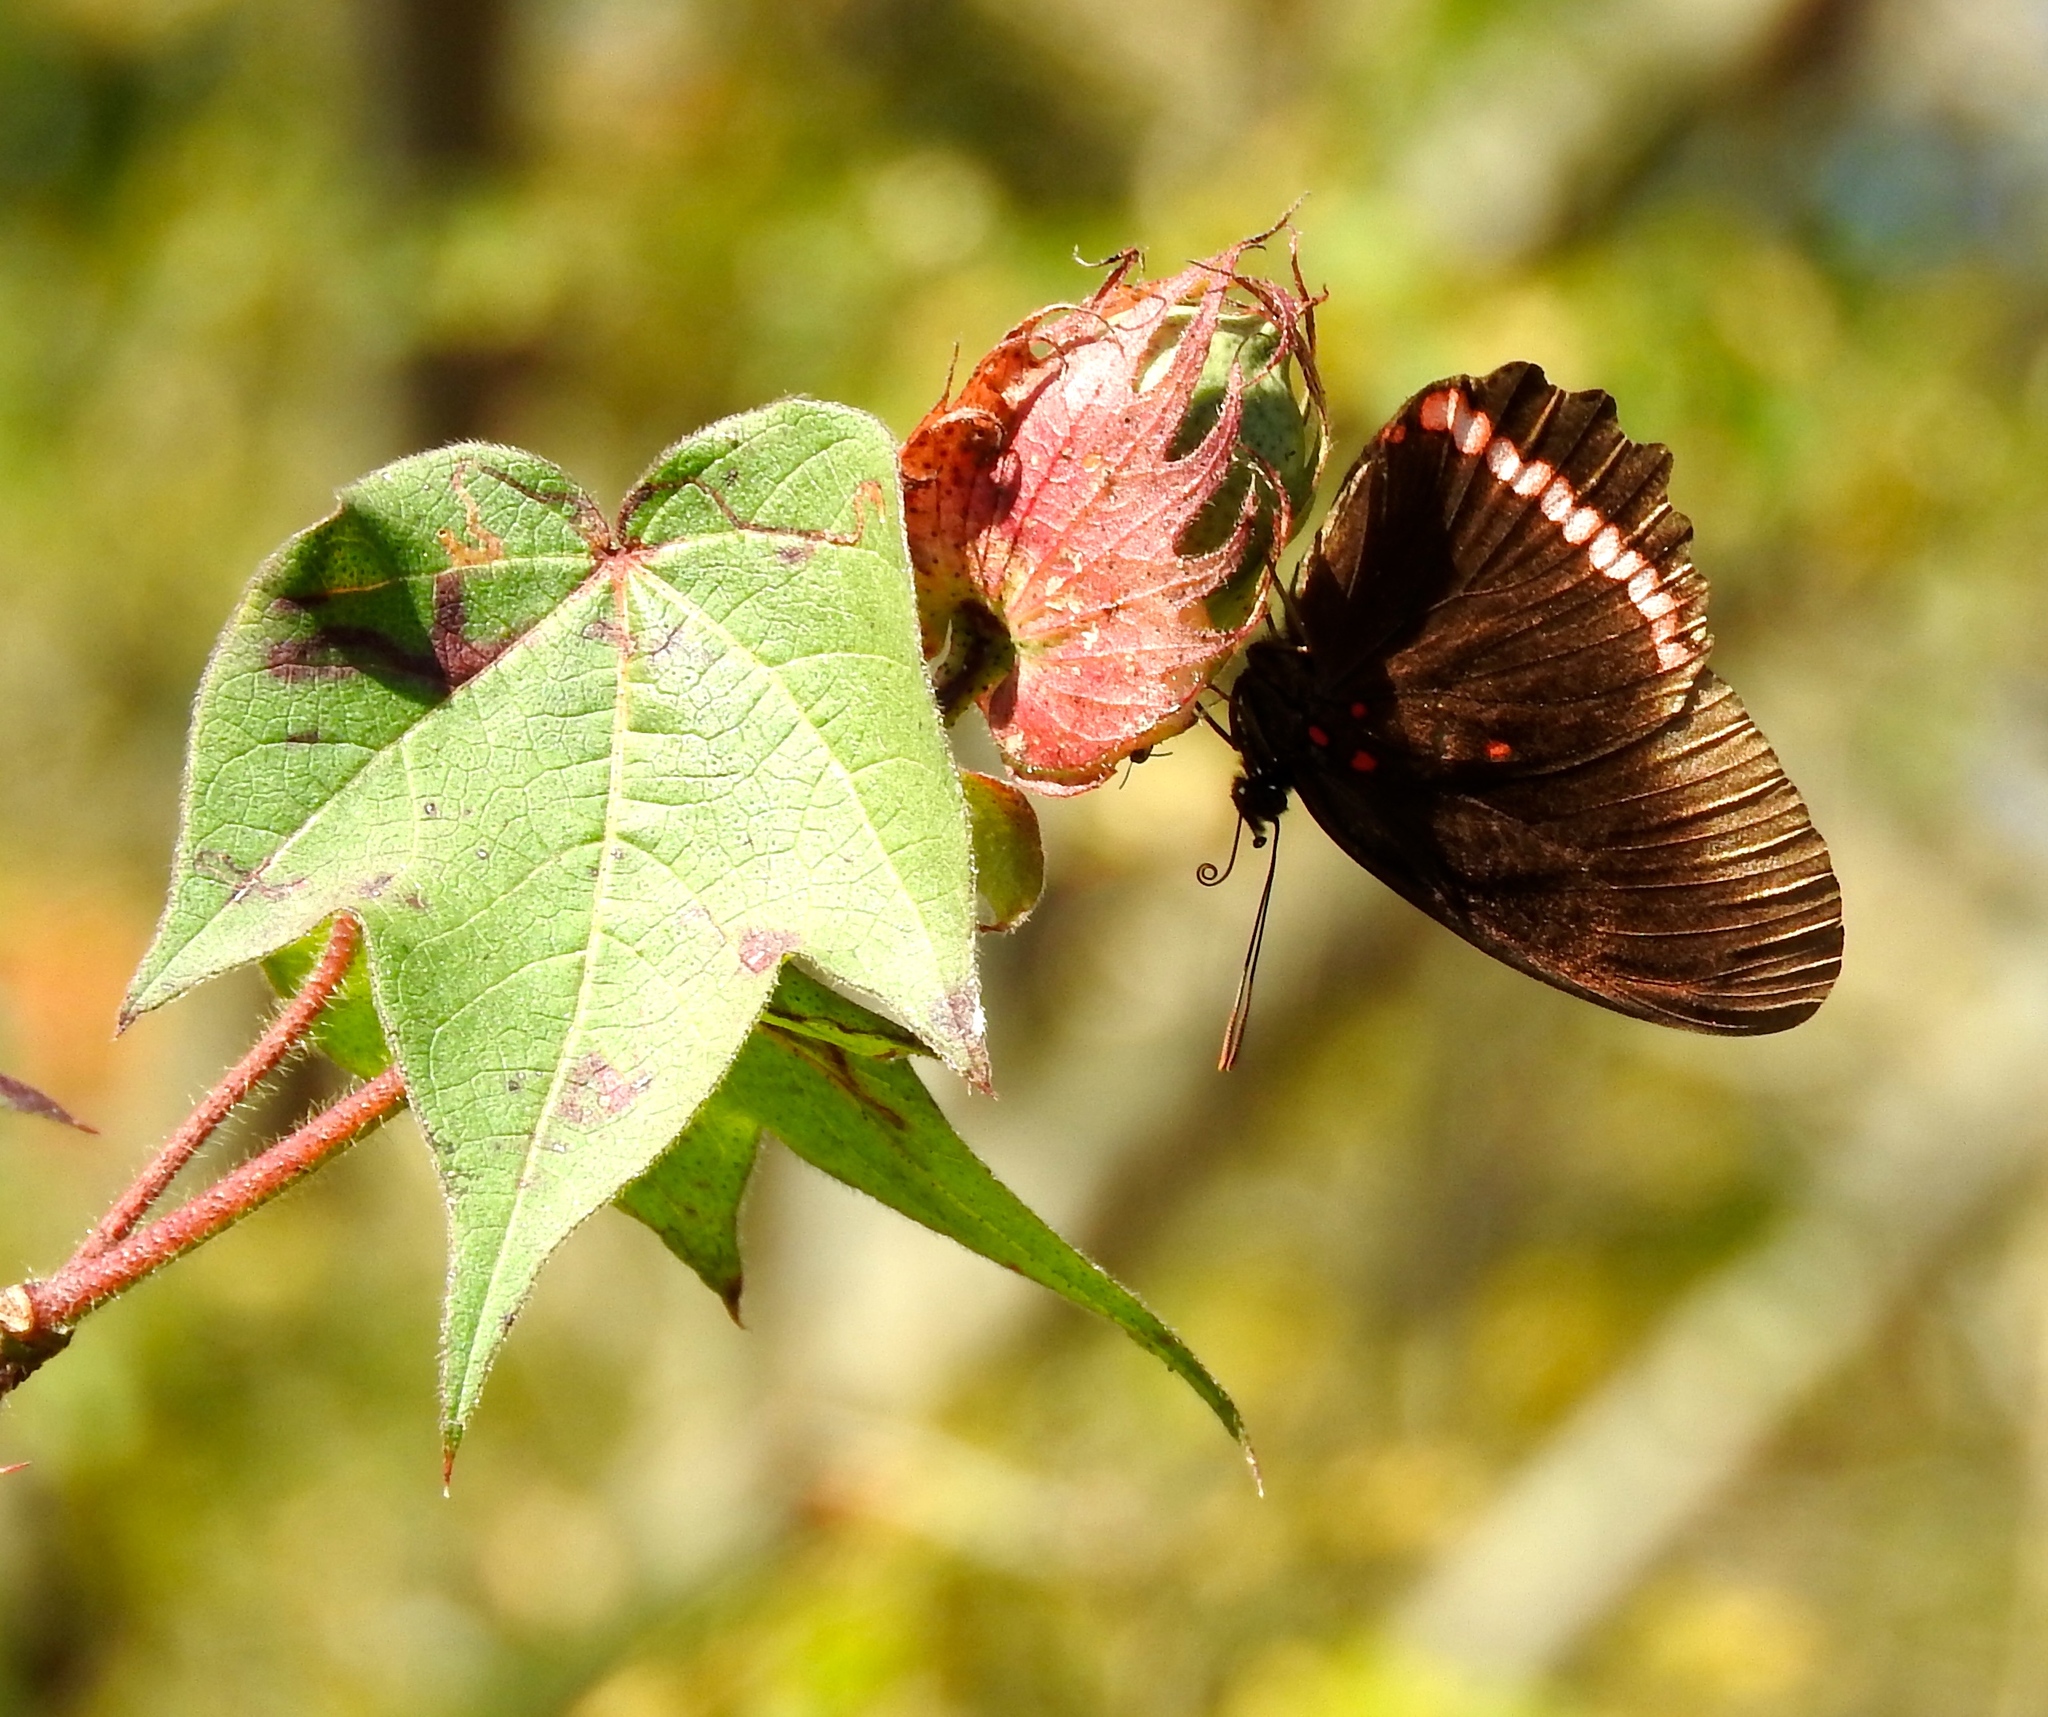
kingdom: Animalia
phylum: Arthropoda
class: Insecta
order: Lepidoptera
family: Nymphalidae
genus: Biblis
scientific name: Biblis aganisa
